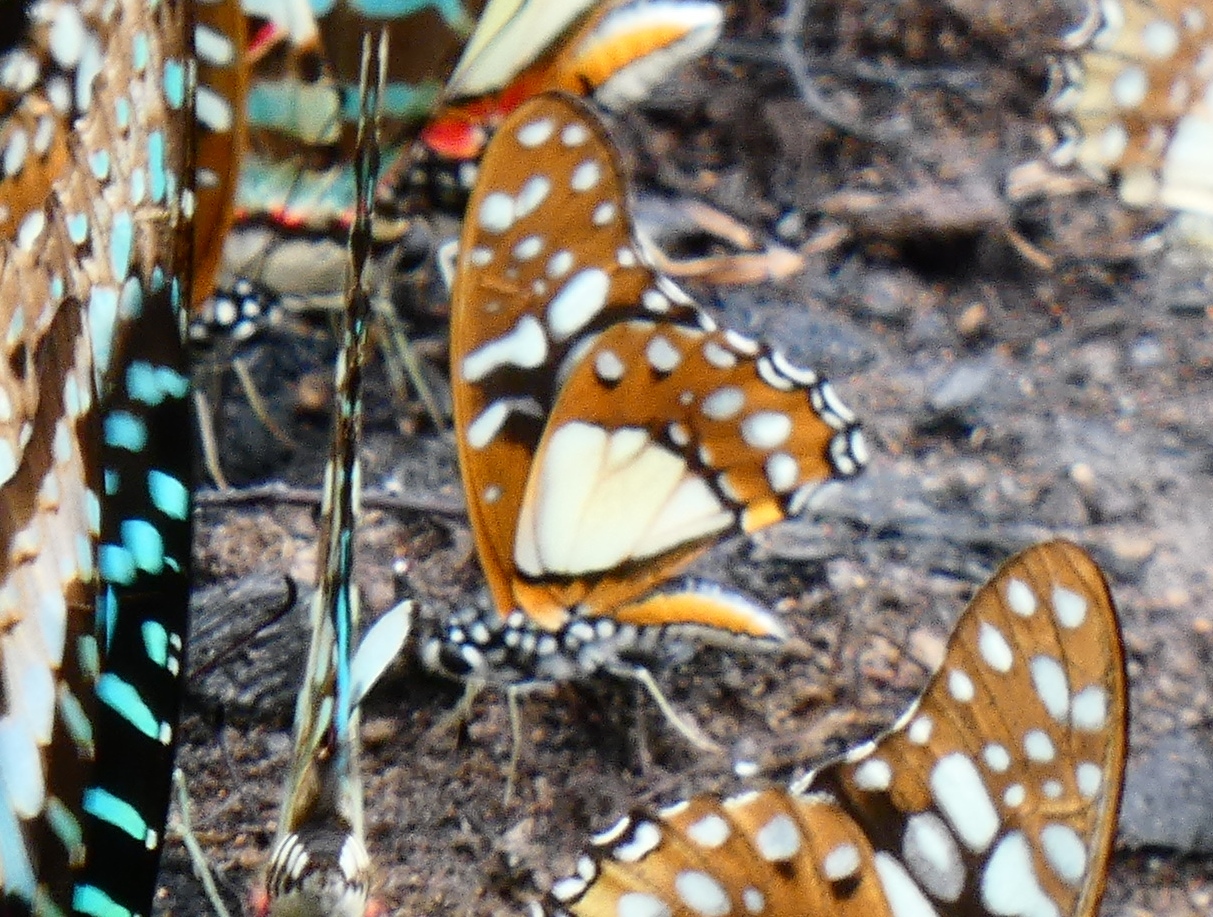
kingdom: Animalia
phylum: Arthropoda
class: Insecta
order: Lepidoptera
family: Papilionidae
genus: Graphium
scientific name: Graphium angolanus
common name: Angola white-lady swordtail
